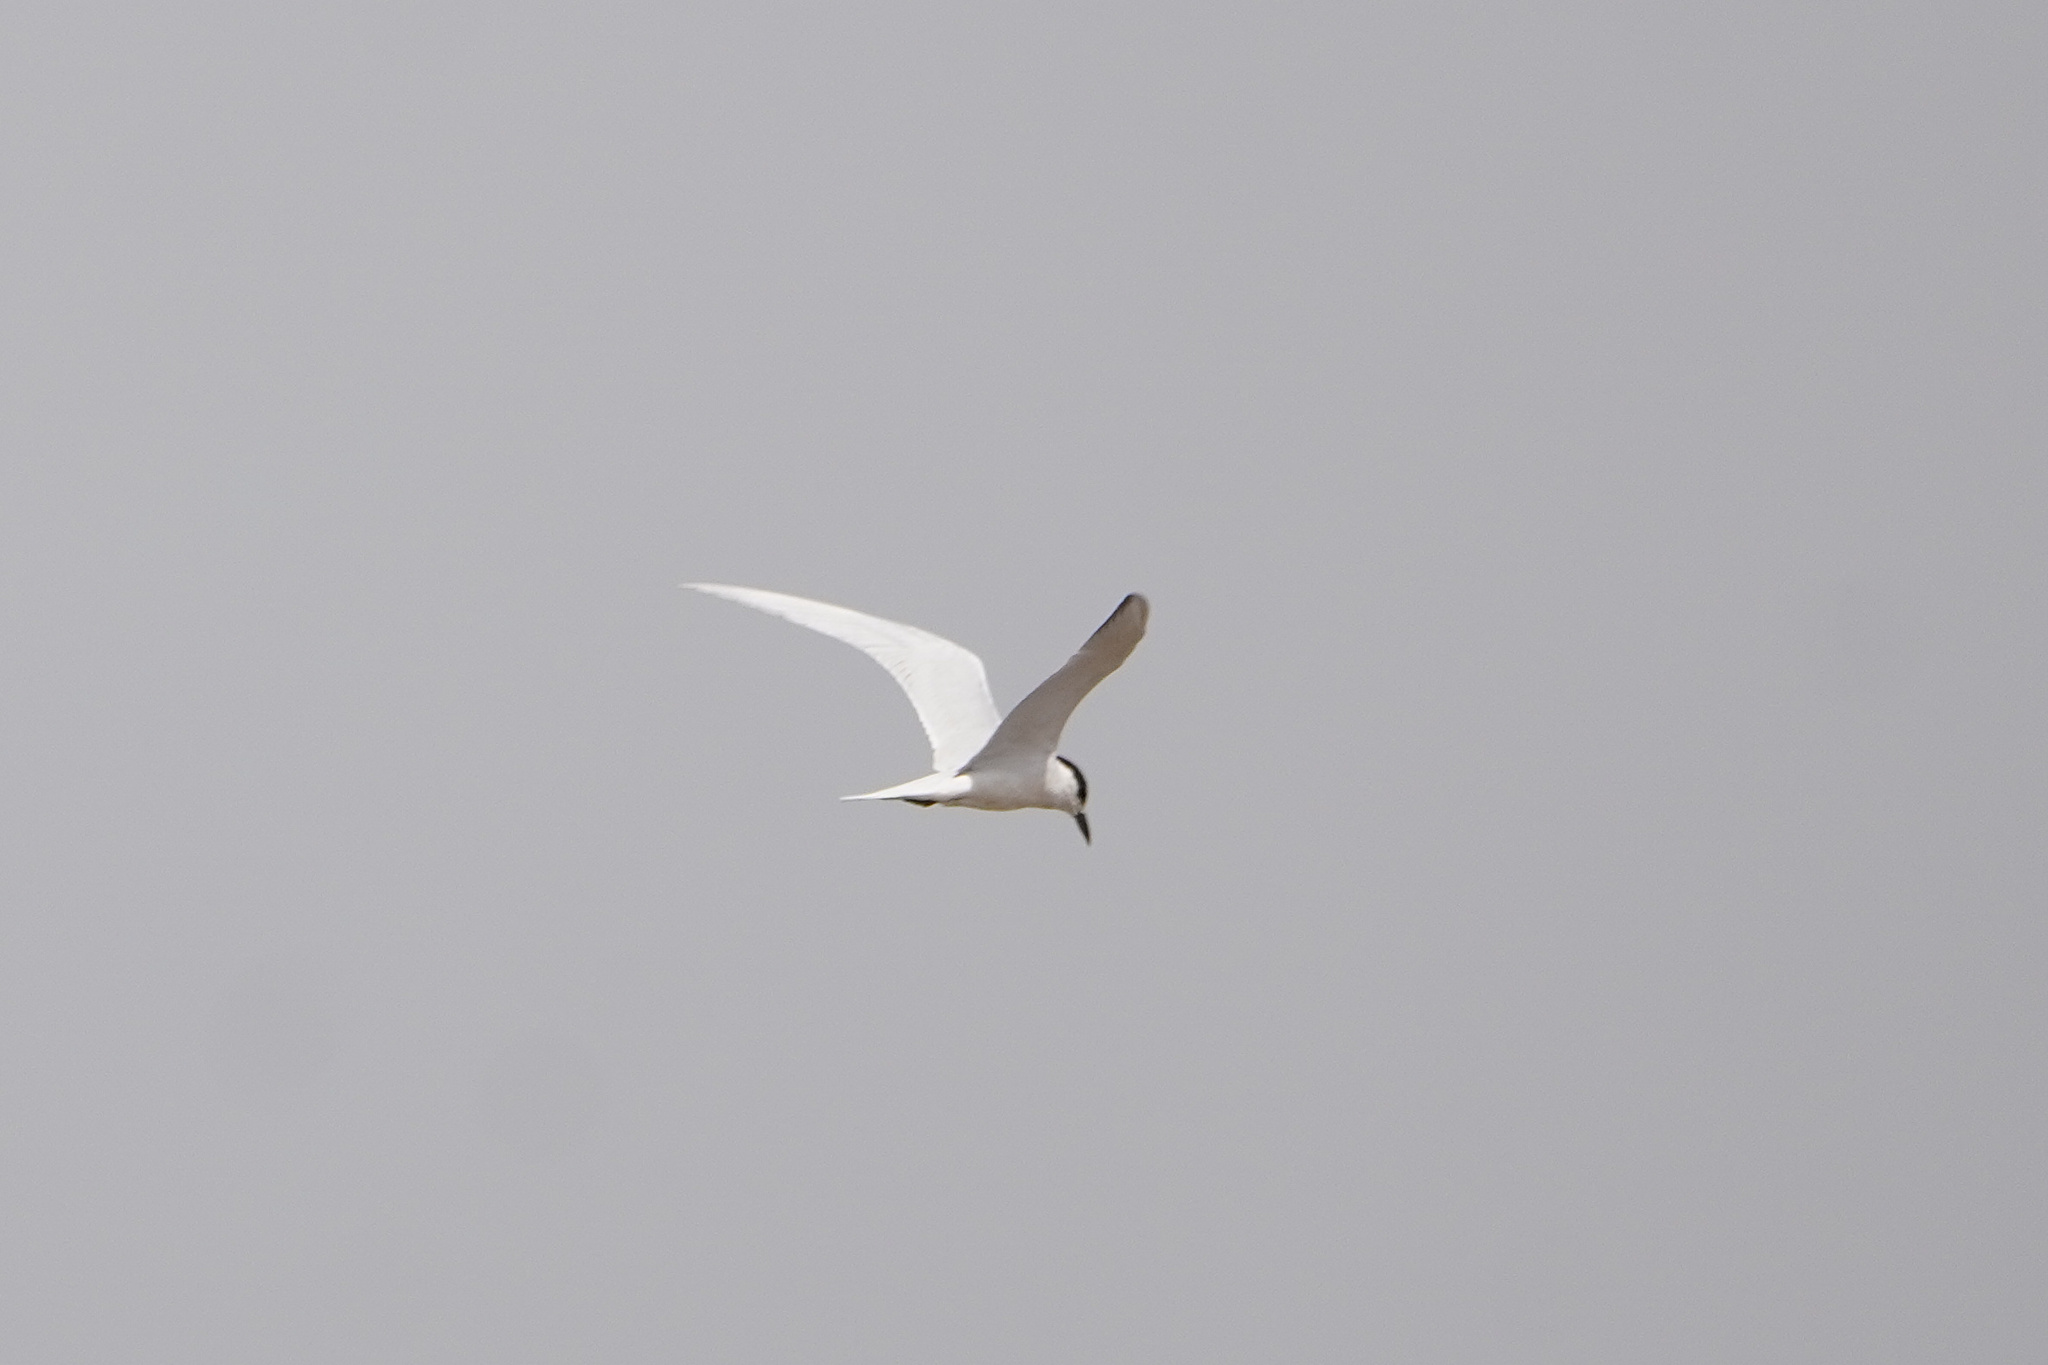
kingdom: Animalia
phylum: Chordata
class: Aves
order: Charadriiformes
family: Laridae
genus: Gelochelidon
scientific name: Gelochelidon nilotica
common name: Gull-billed tern
